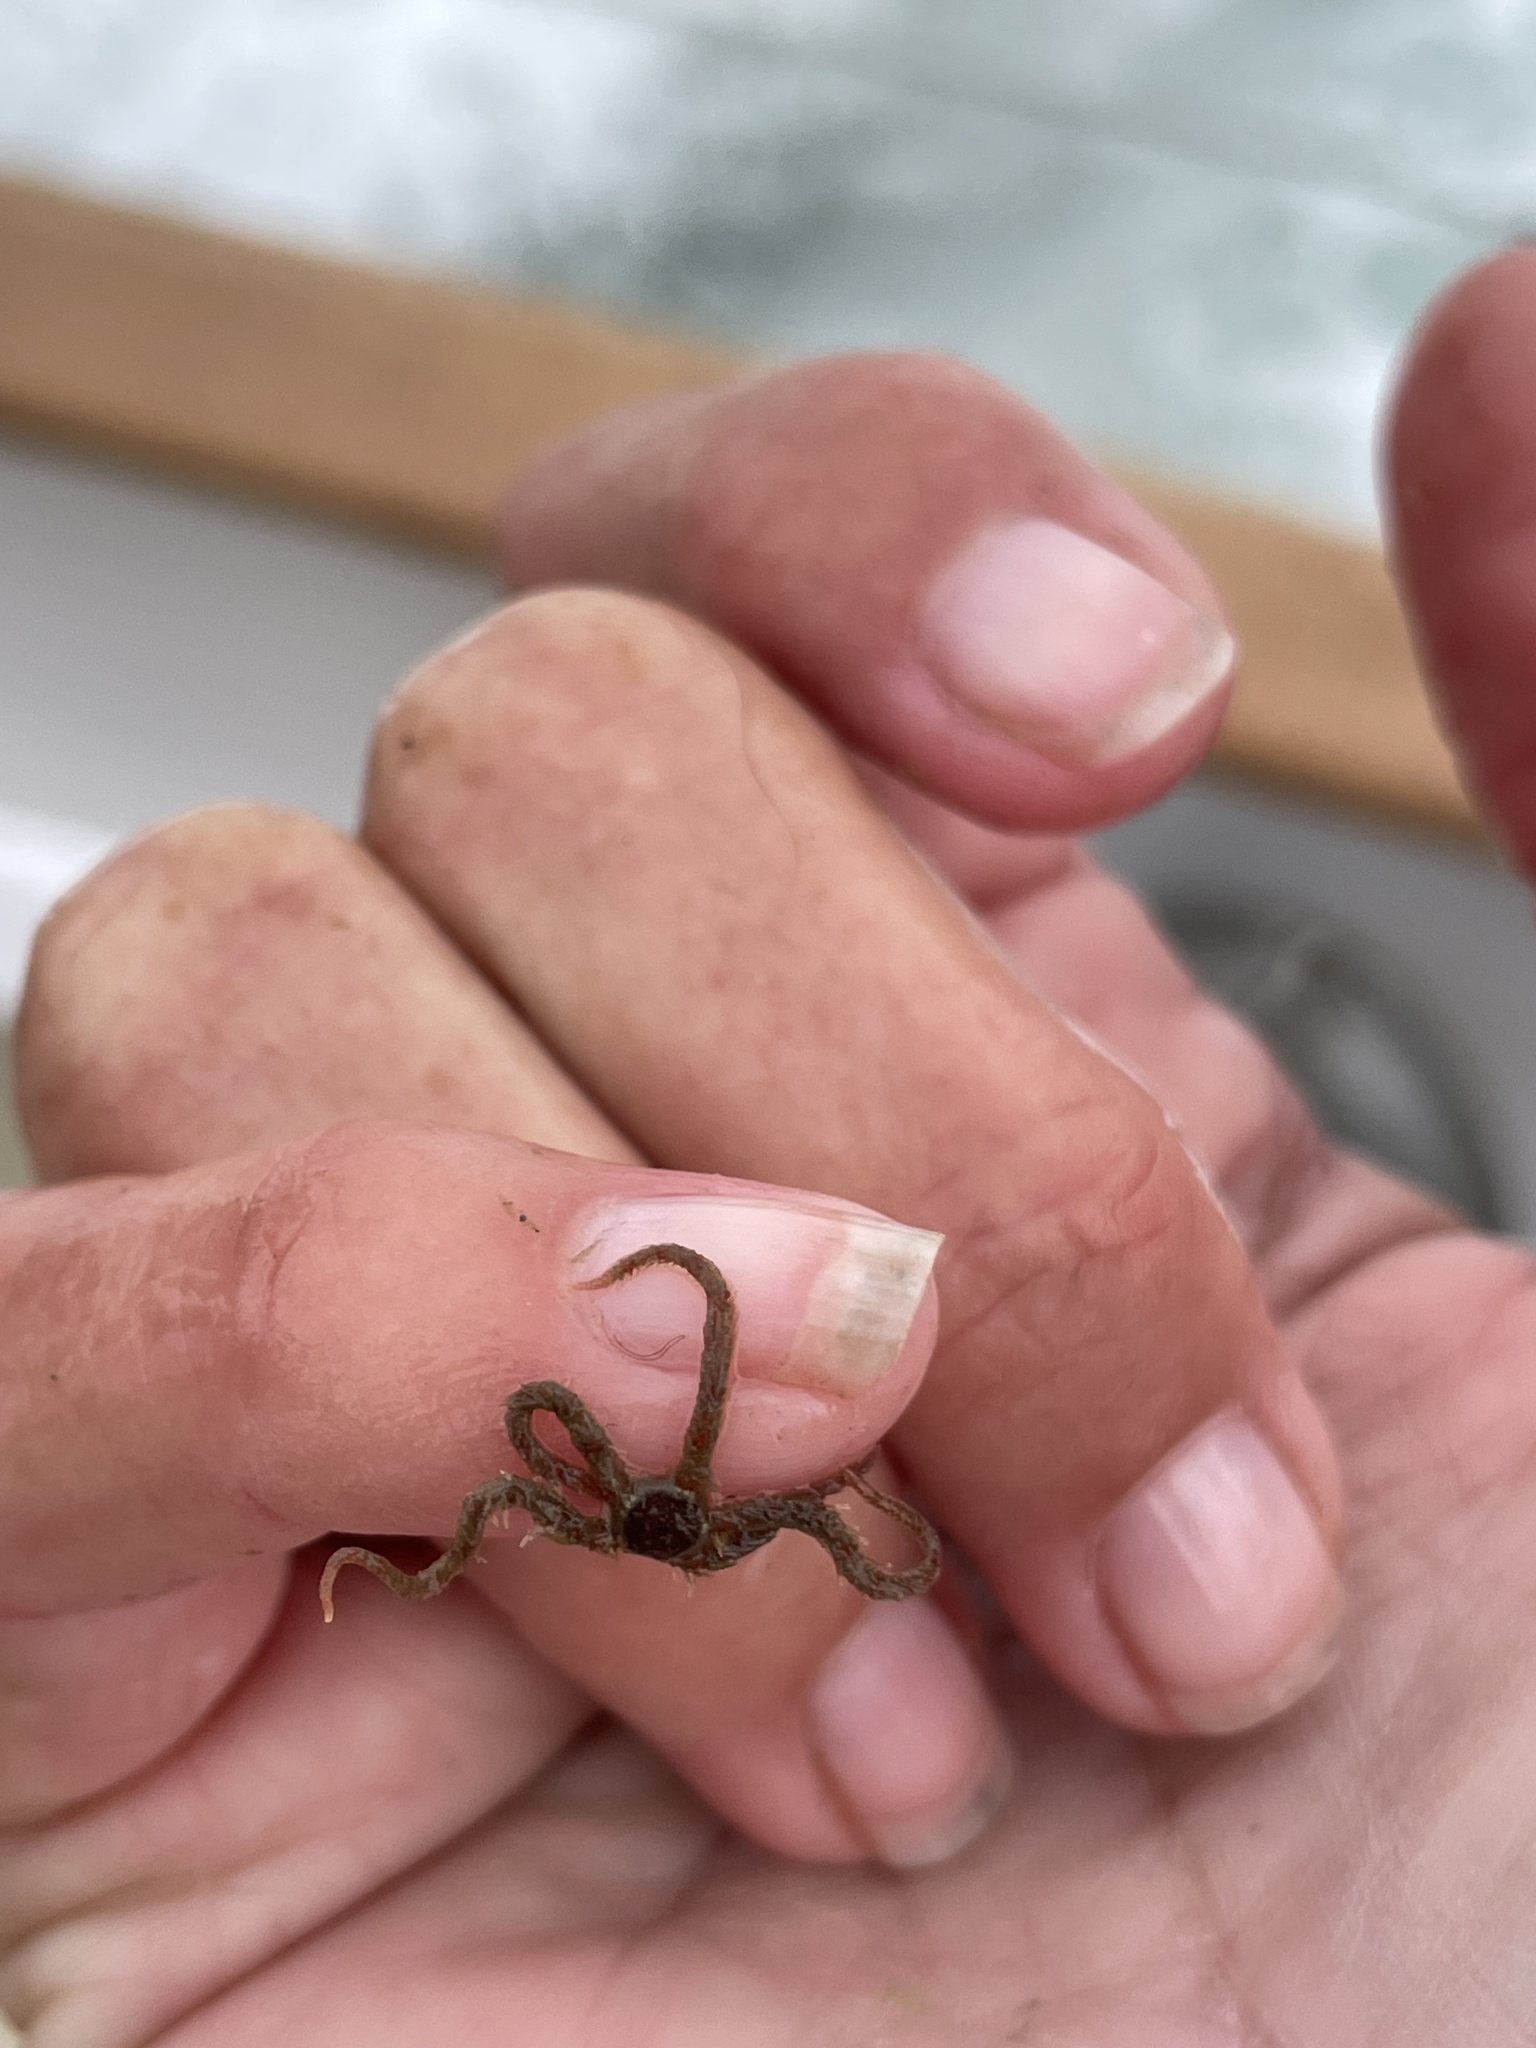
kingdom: Animalia
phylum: Echinodermata
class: Ophiuroidea
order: Amphilepidida
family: Ophiotrichidae
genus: Ophiothrix
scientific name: Ophiothrix spiculata
